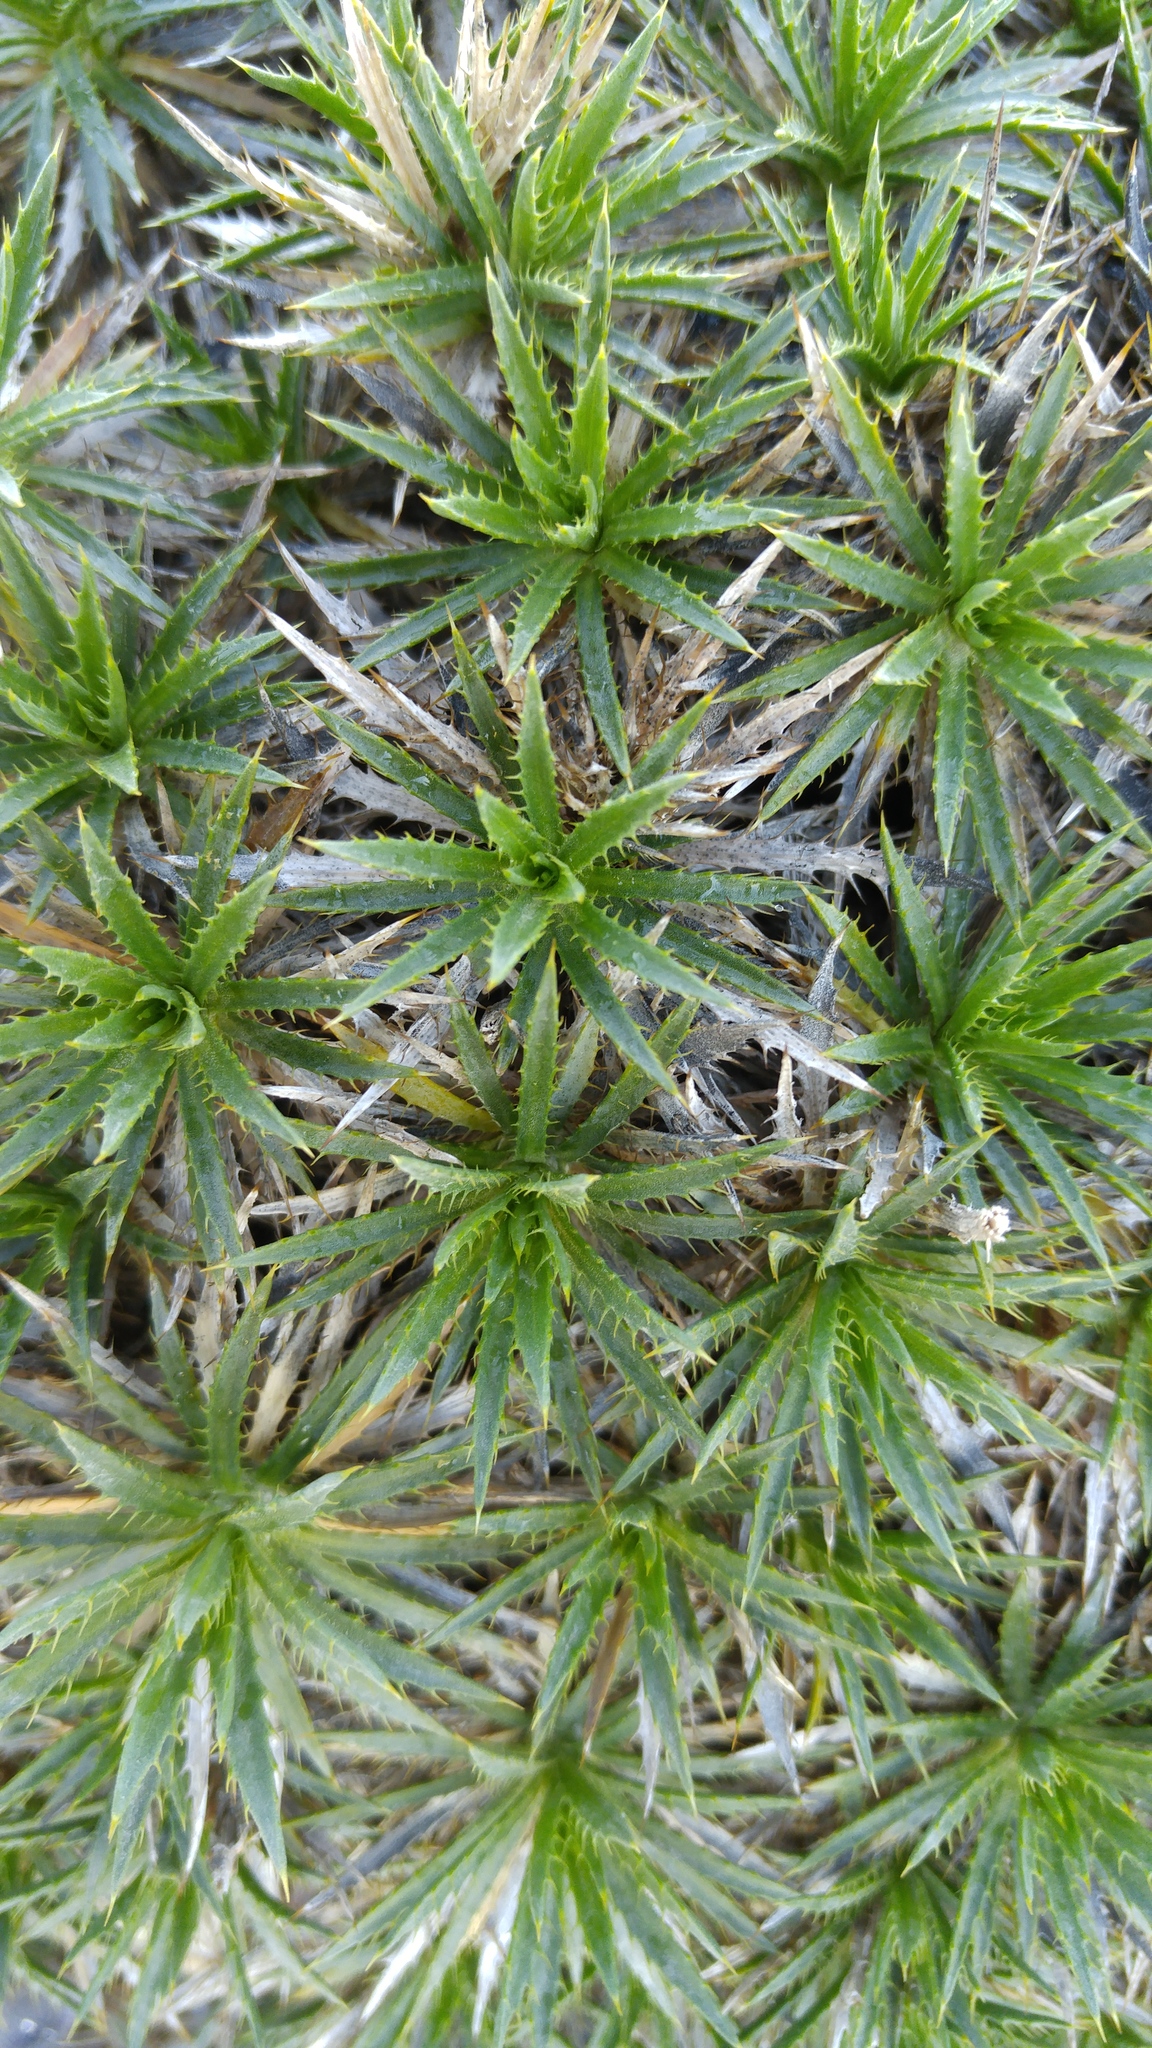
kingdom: Plantae
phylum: Tracheophyta
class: Magnoliopsida
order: Asterales
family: Asteraceae
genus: Atractylis
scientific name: Atractylis caespitosa
